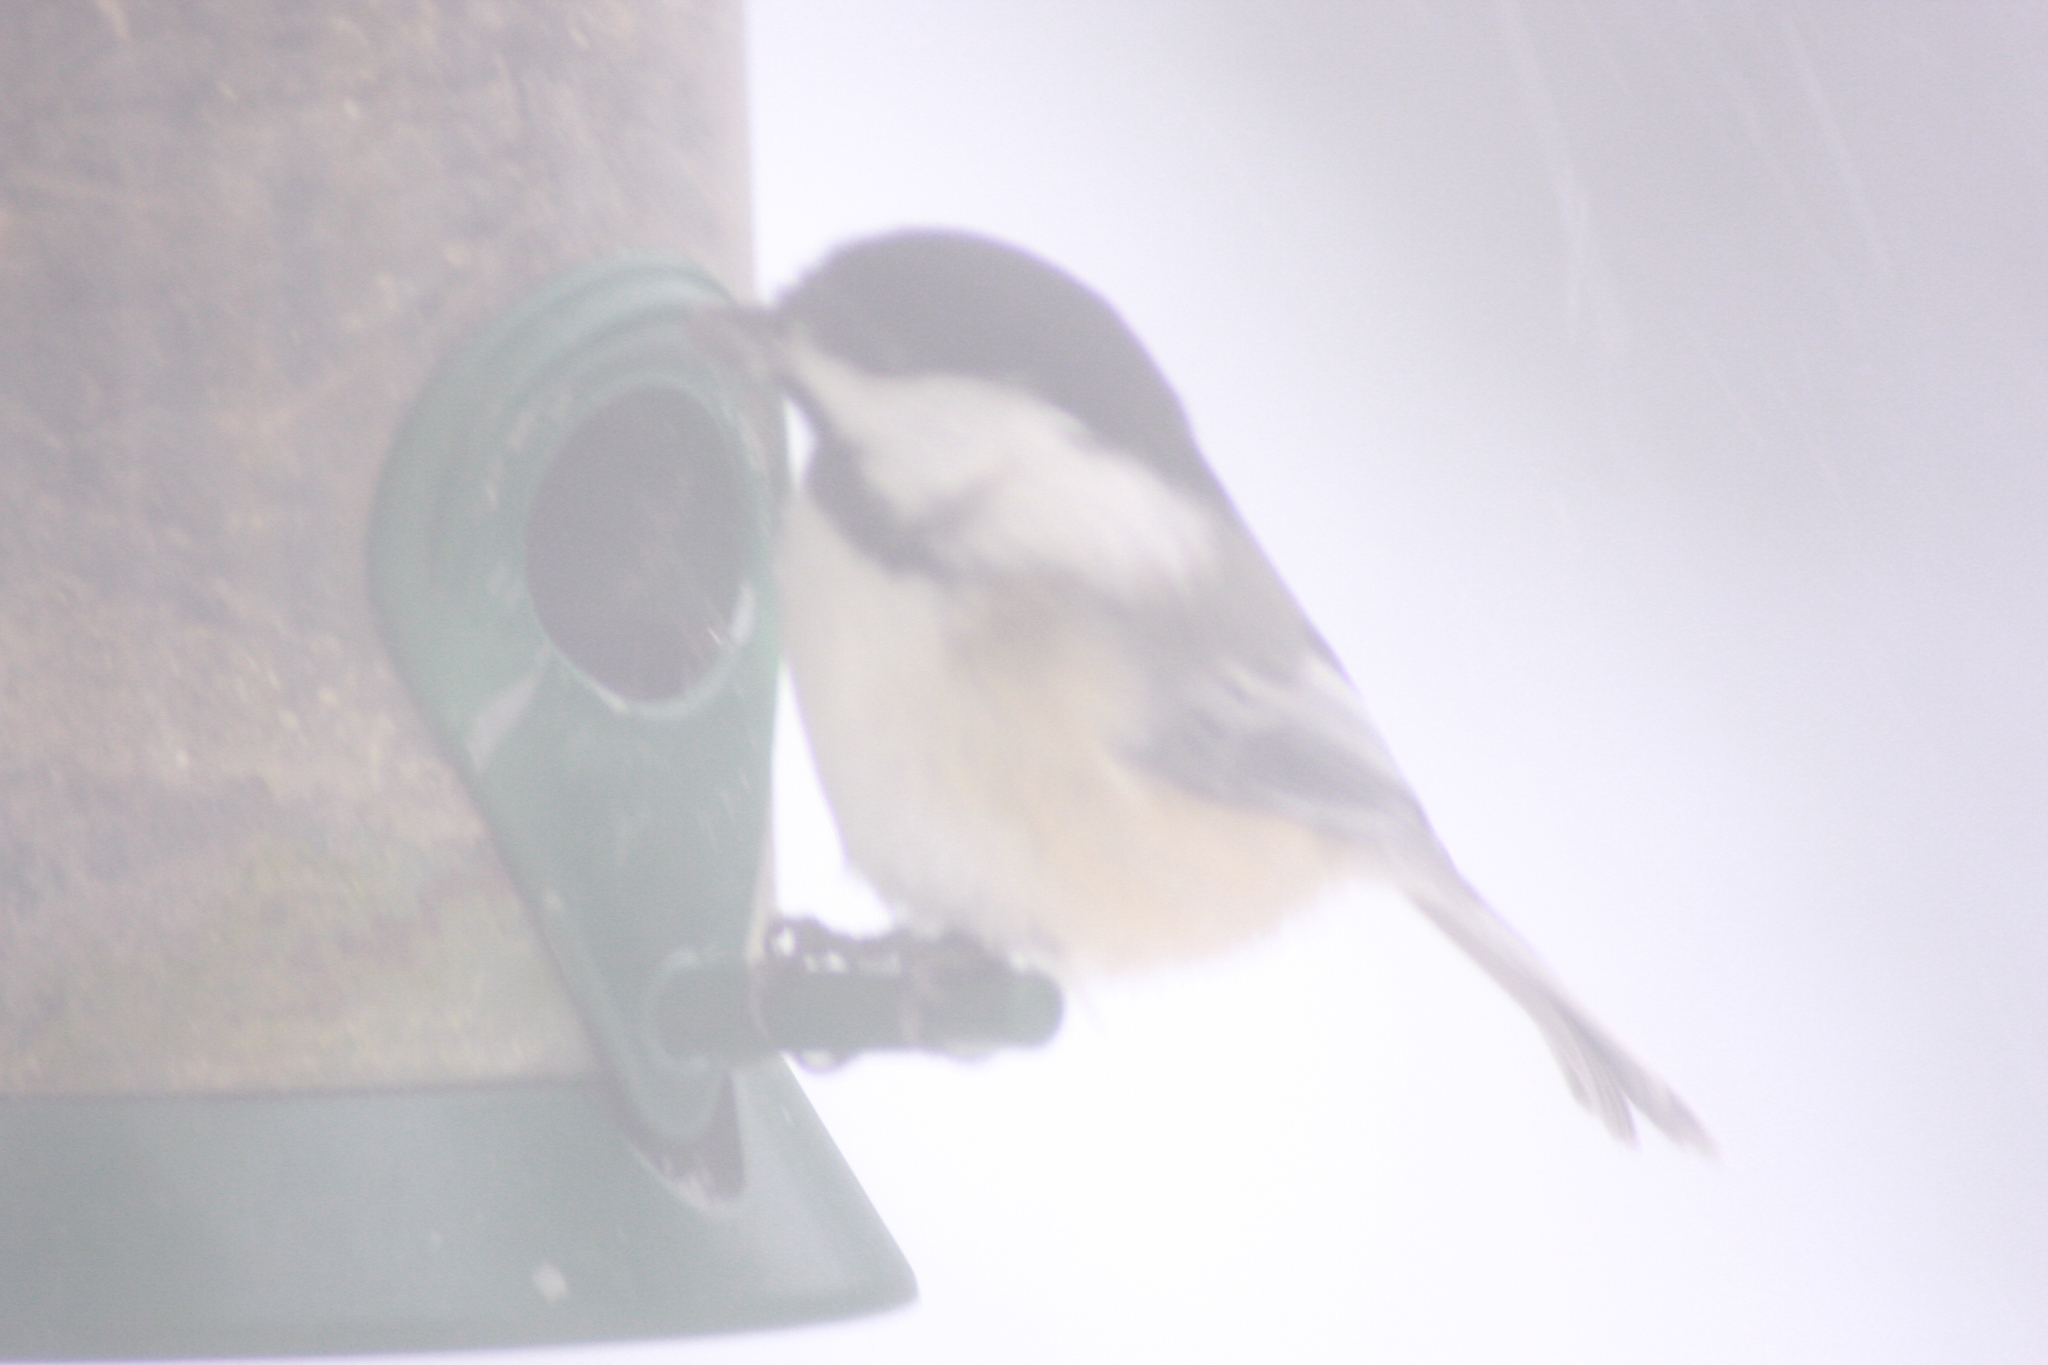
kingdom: Animalia
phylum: Chordata
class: Aves
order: Passeriformes
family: Paridae
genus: Poecile
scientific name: Poecile atricapillus
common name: Black-capped chickadee
